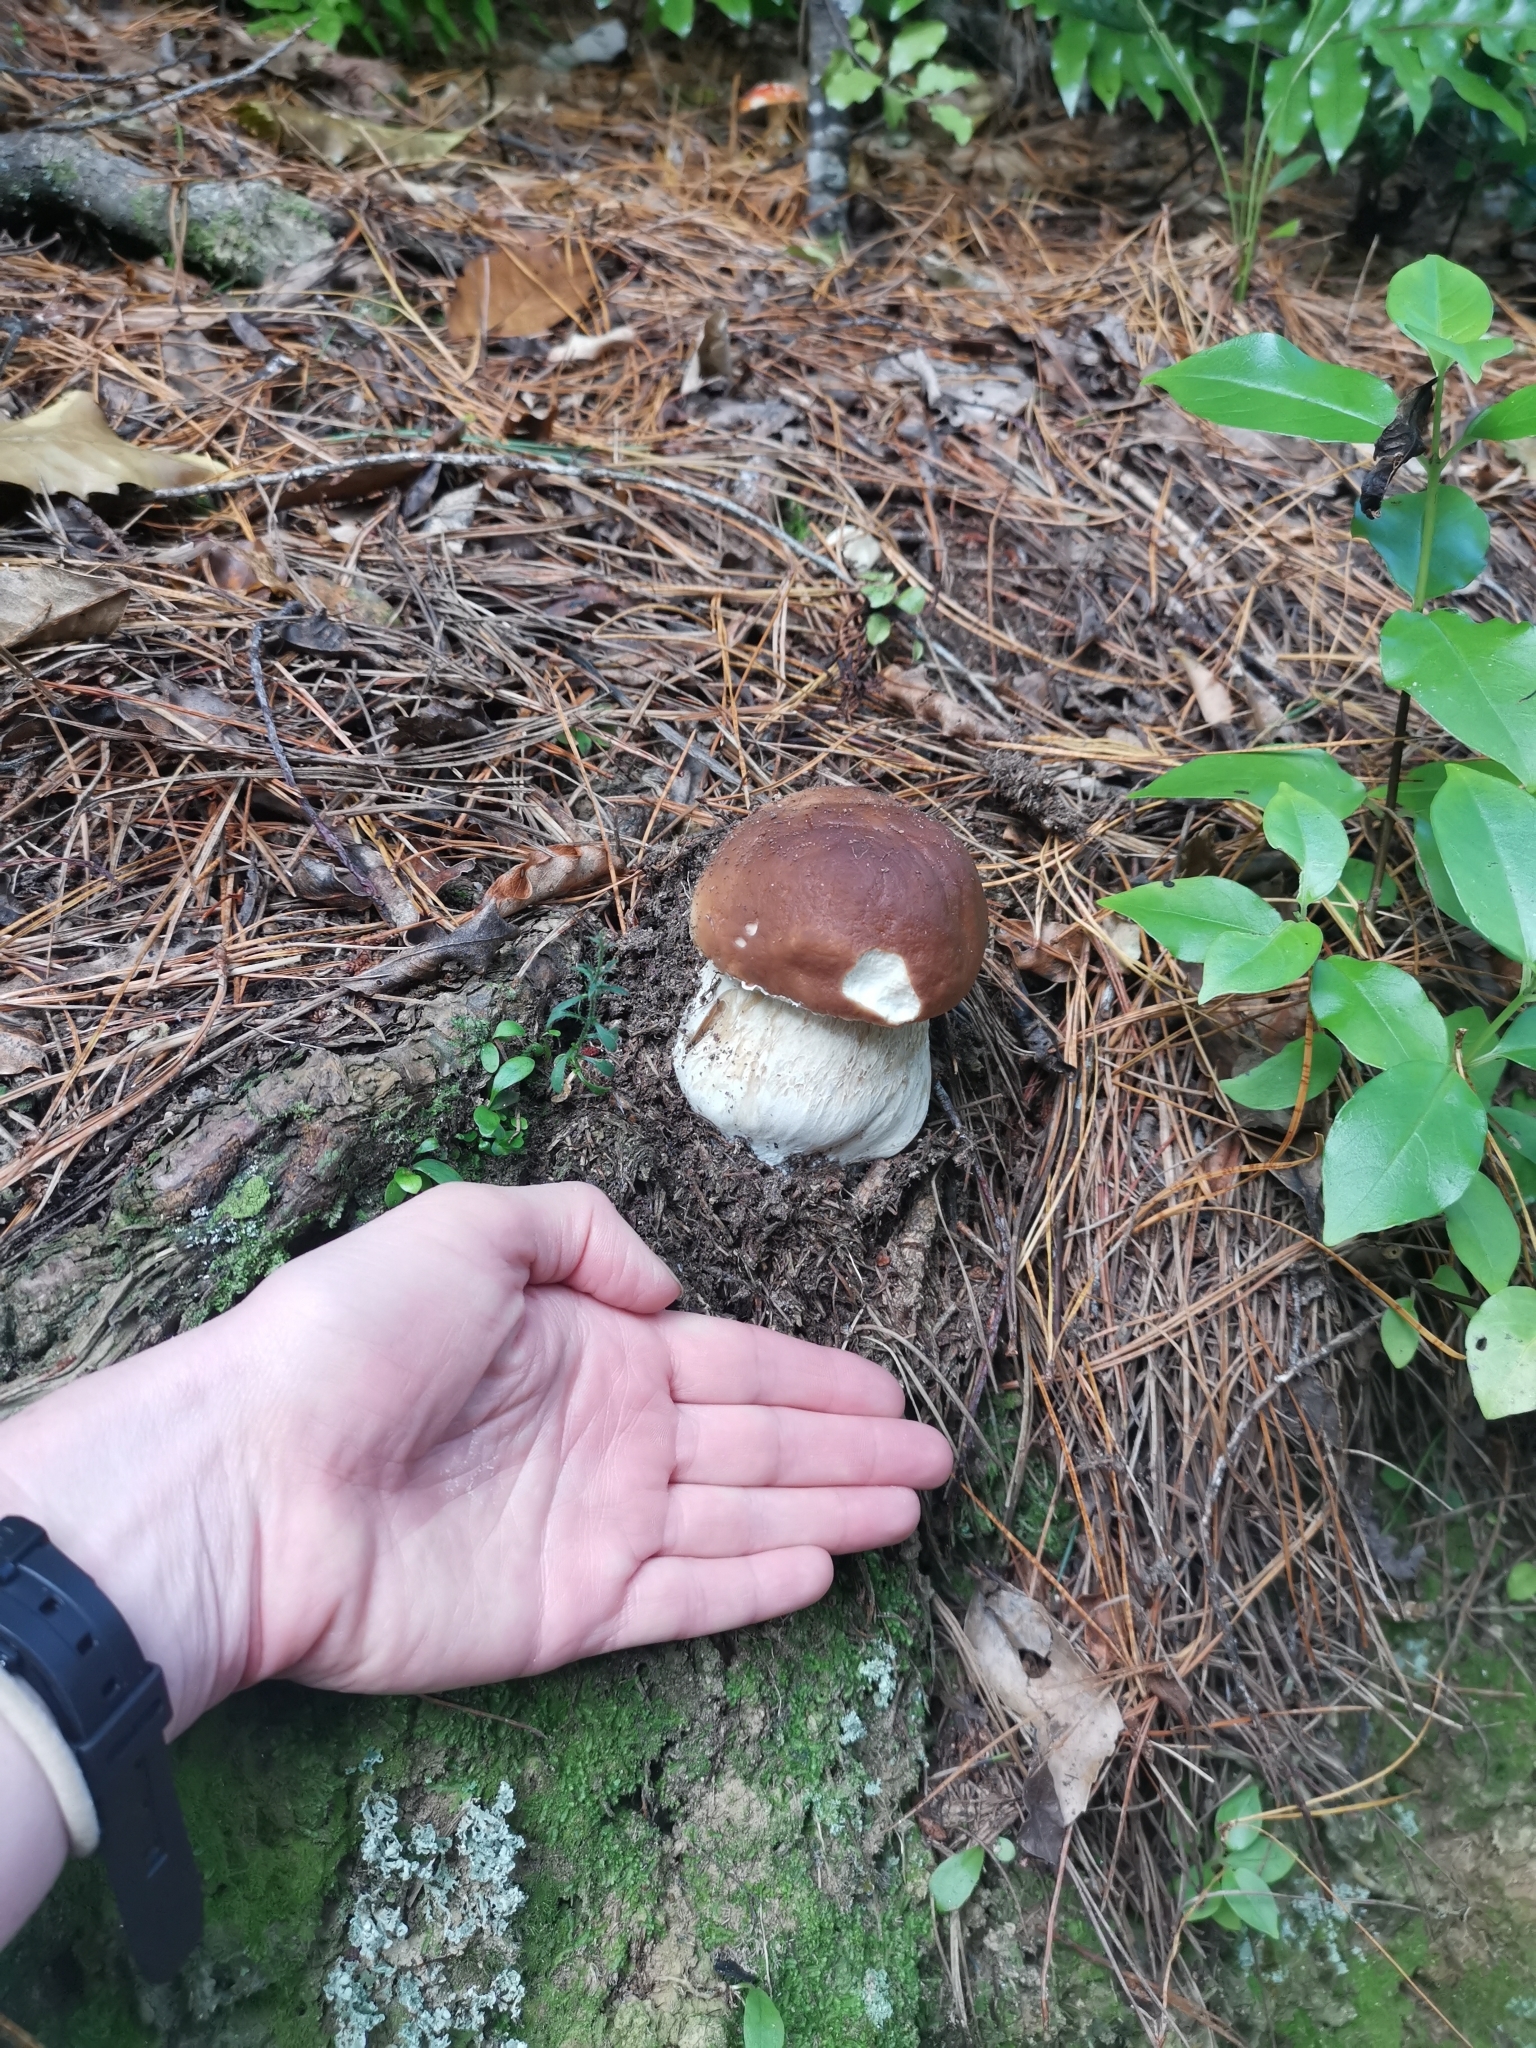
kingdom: Fungi
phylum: Basidiomycota
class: Agaricomycetes
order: Boletales
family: Boletaceae
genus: Boletus
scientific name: Boletus edulis
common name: Cep
